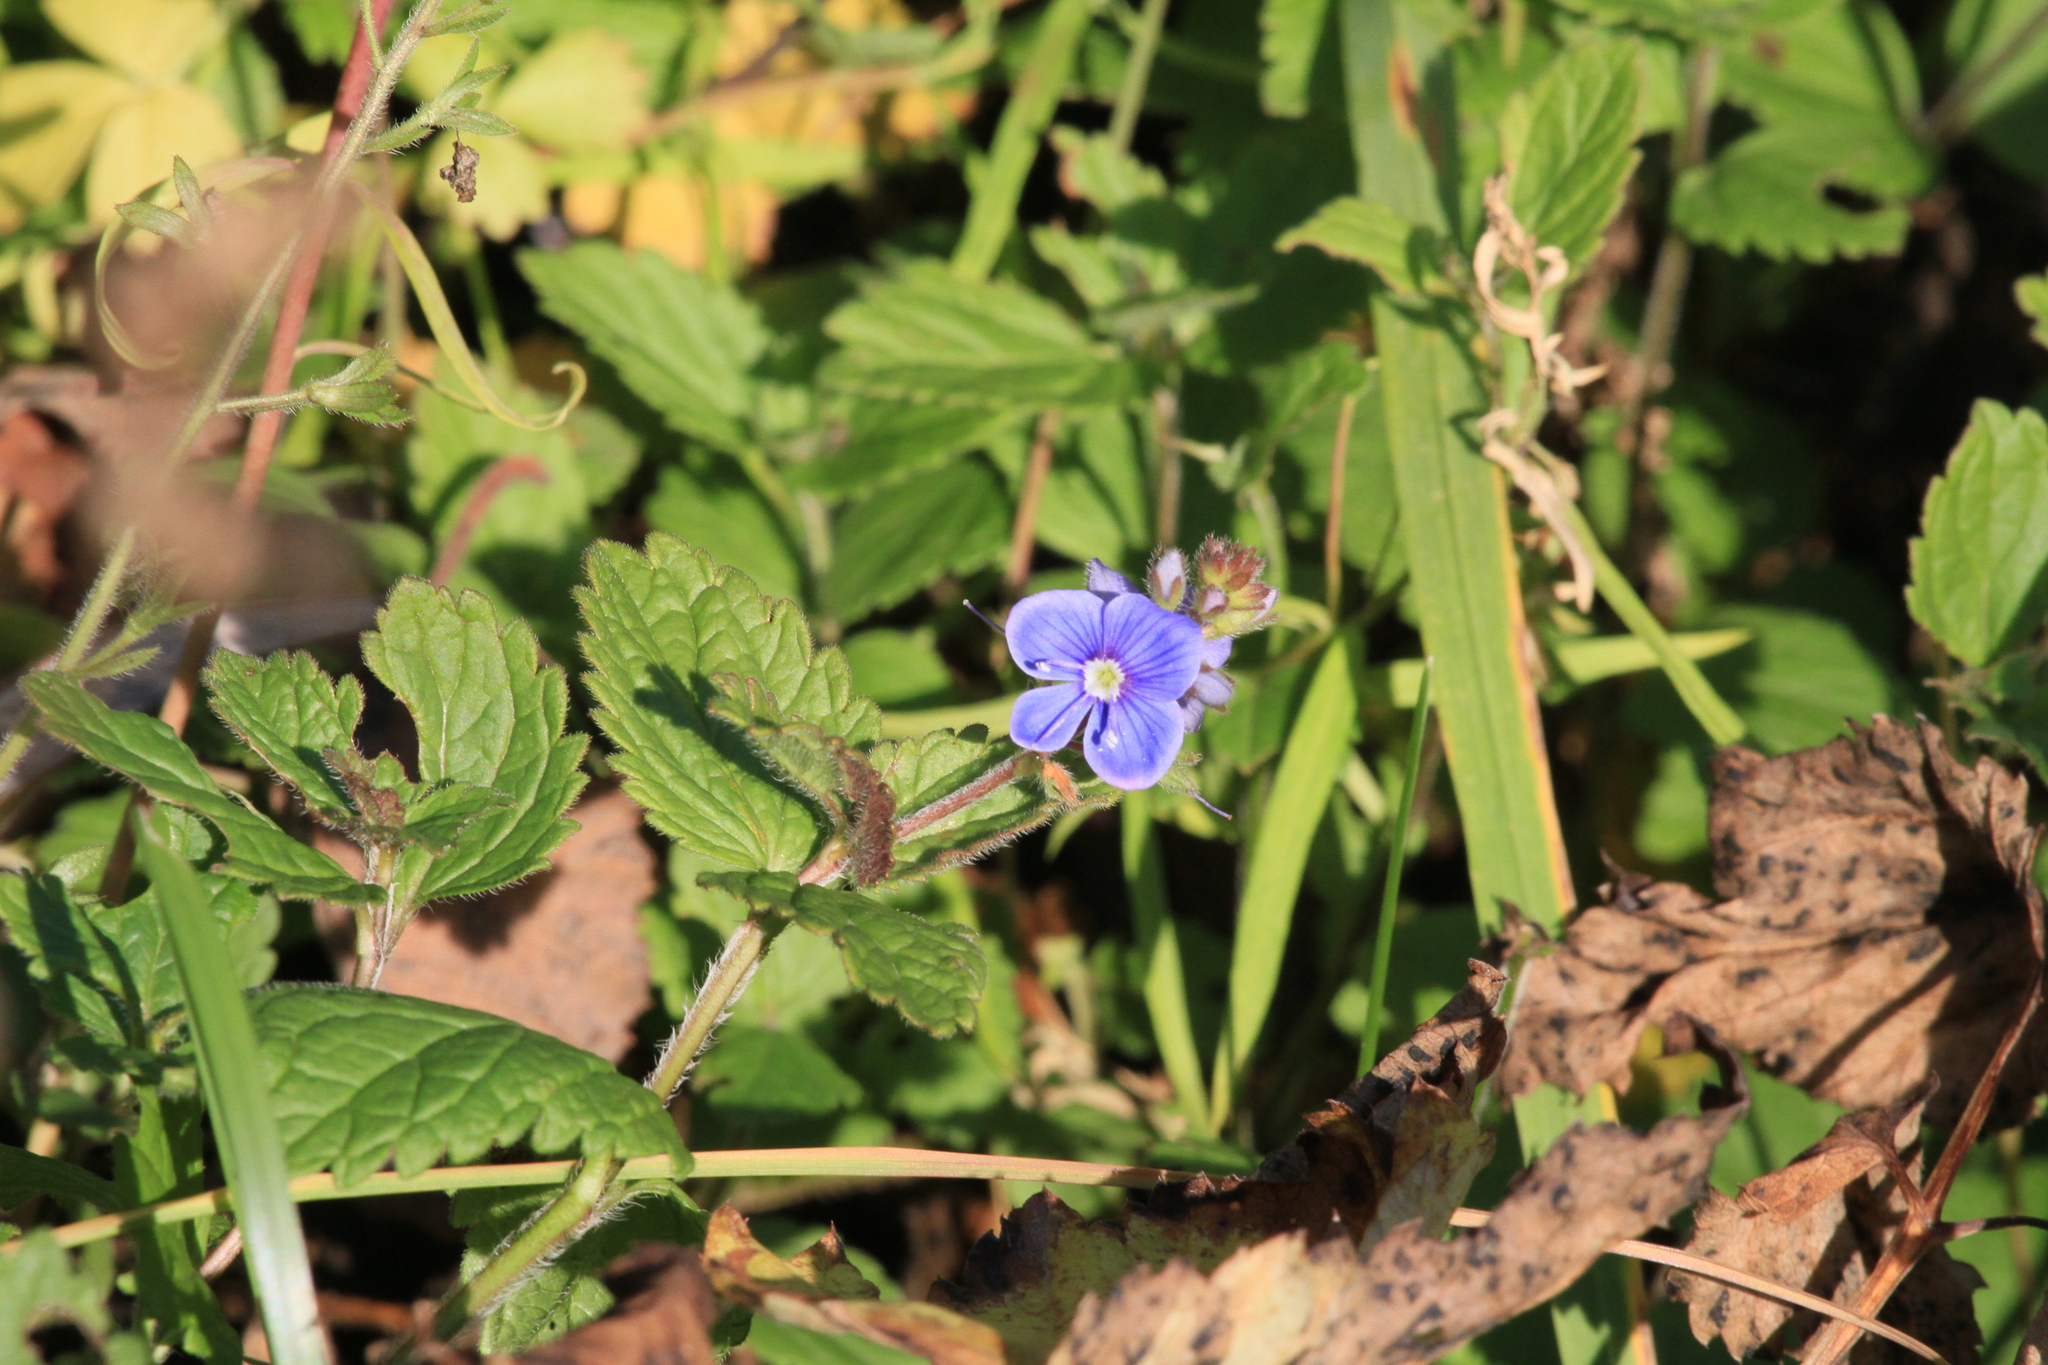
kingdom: Plantae
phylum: Tracheophyta
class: Magnoliopsida
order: Lamiales
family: Plantaginaceae
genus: Veronica
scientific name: Veronica chamaedrys
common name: Germander speedwell
